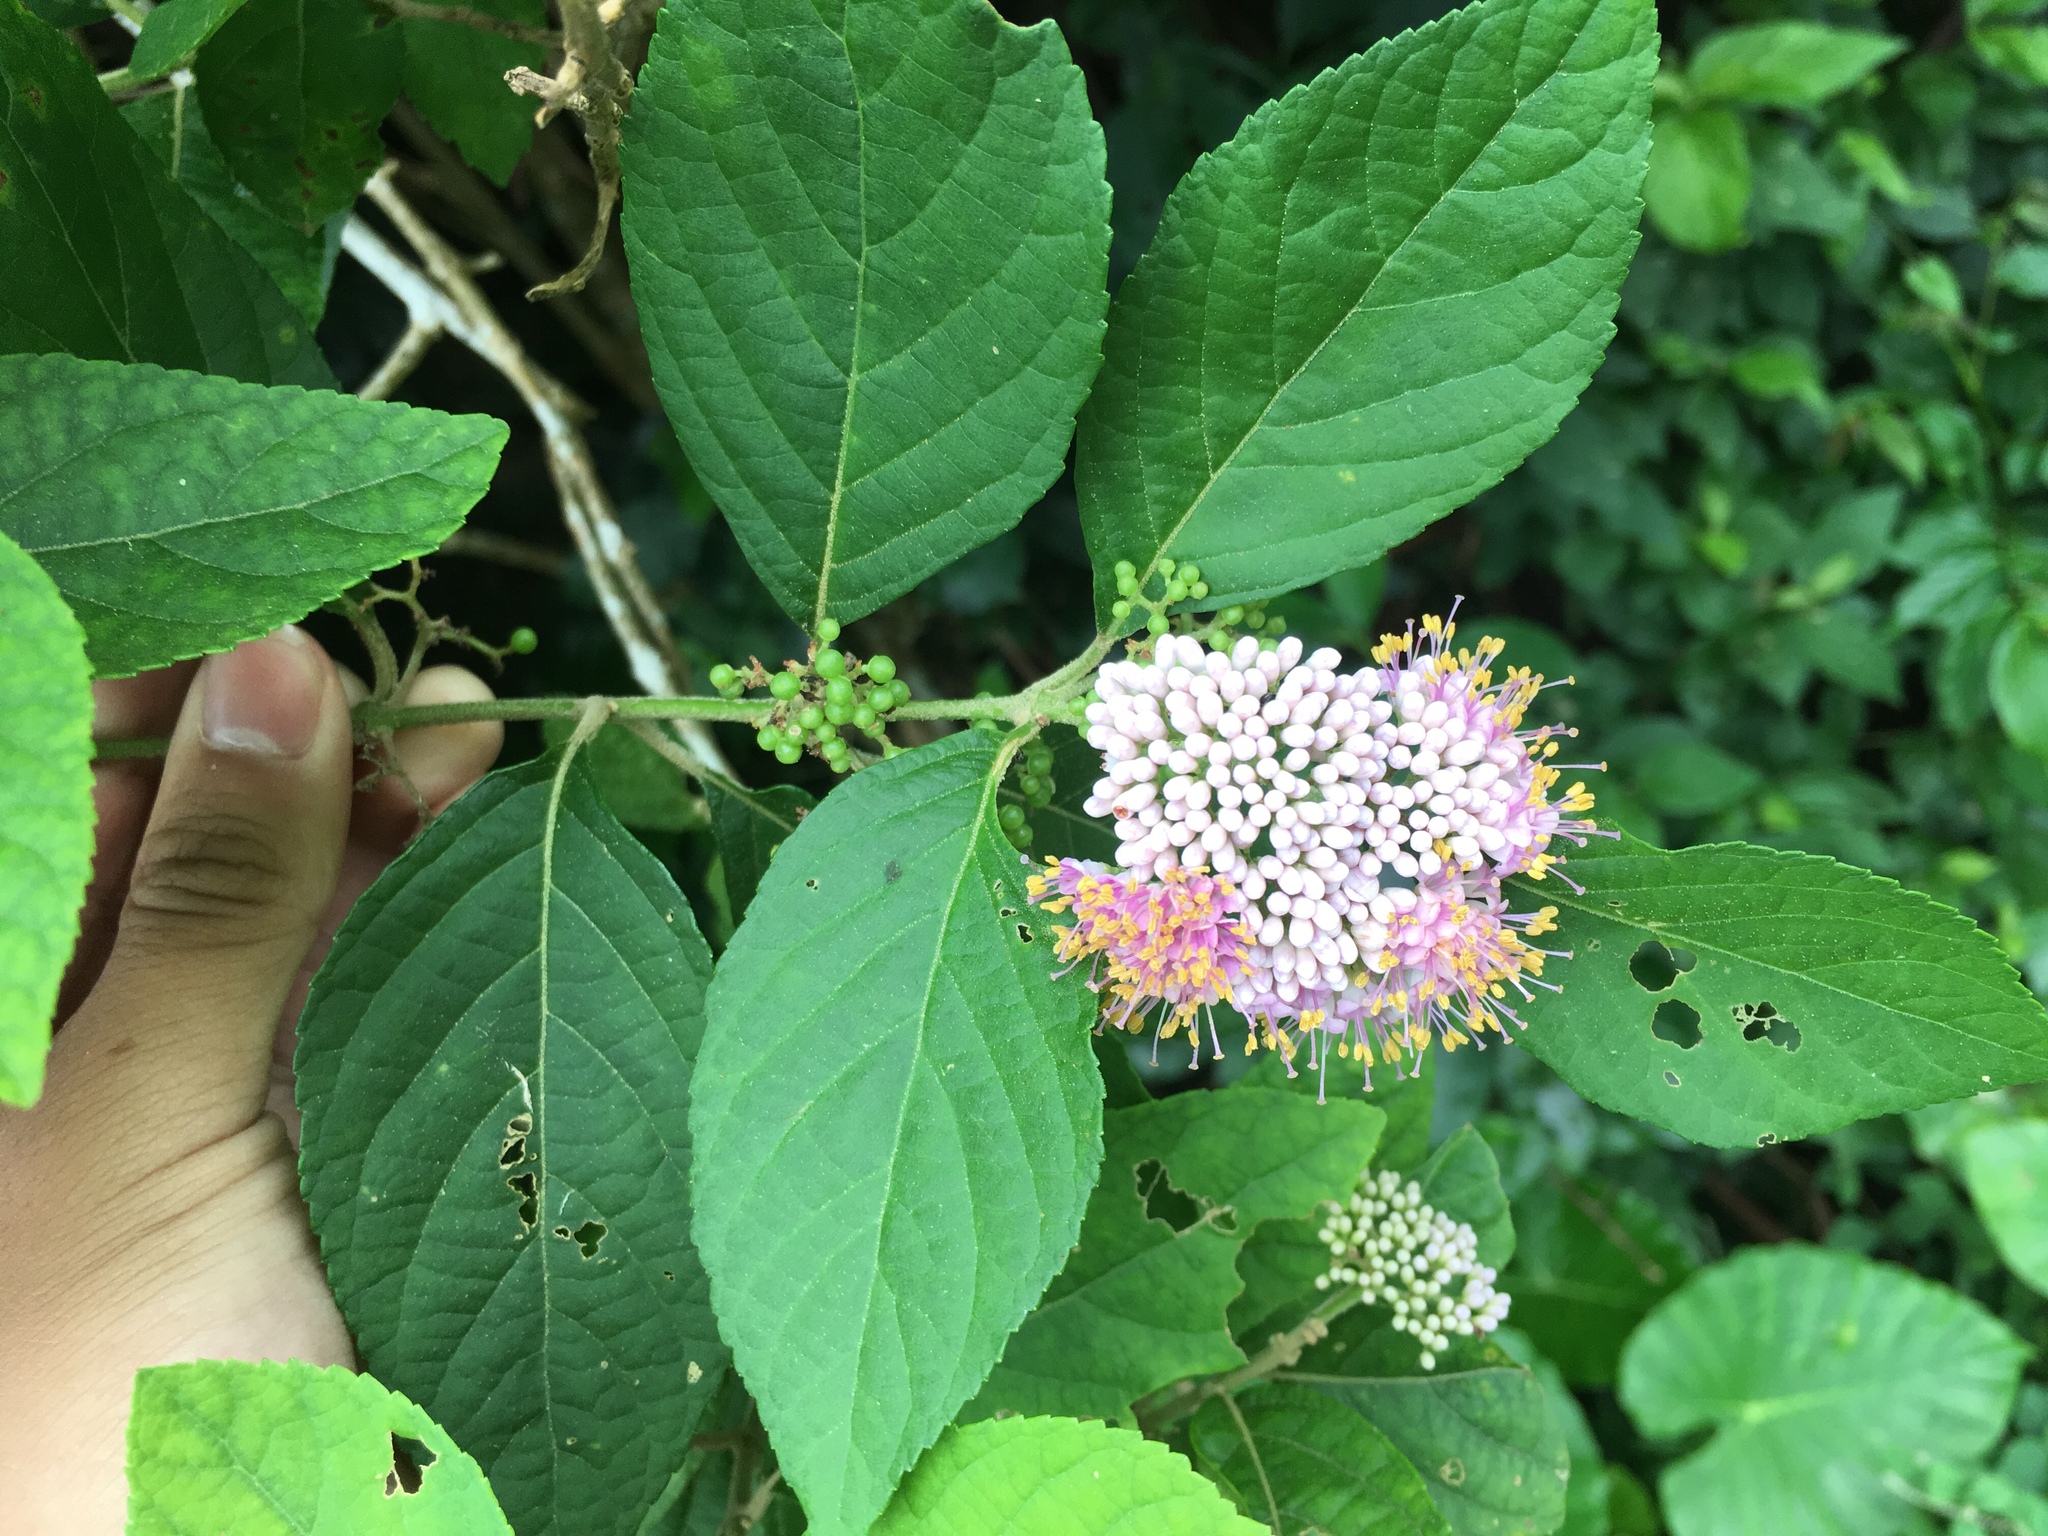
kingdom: Plantae
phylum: Tracheophyta
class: Magnoliopsida
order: Lamiales
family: Lamiaceae
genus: Callicarpa
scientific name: Callicarpa japonica
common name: Japanese beauty-berry
